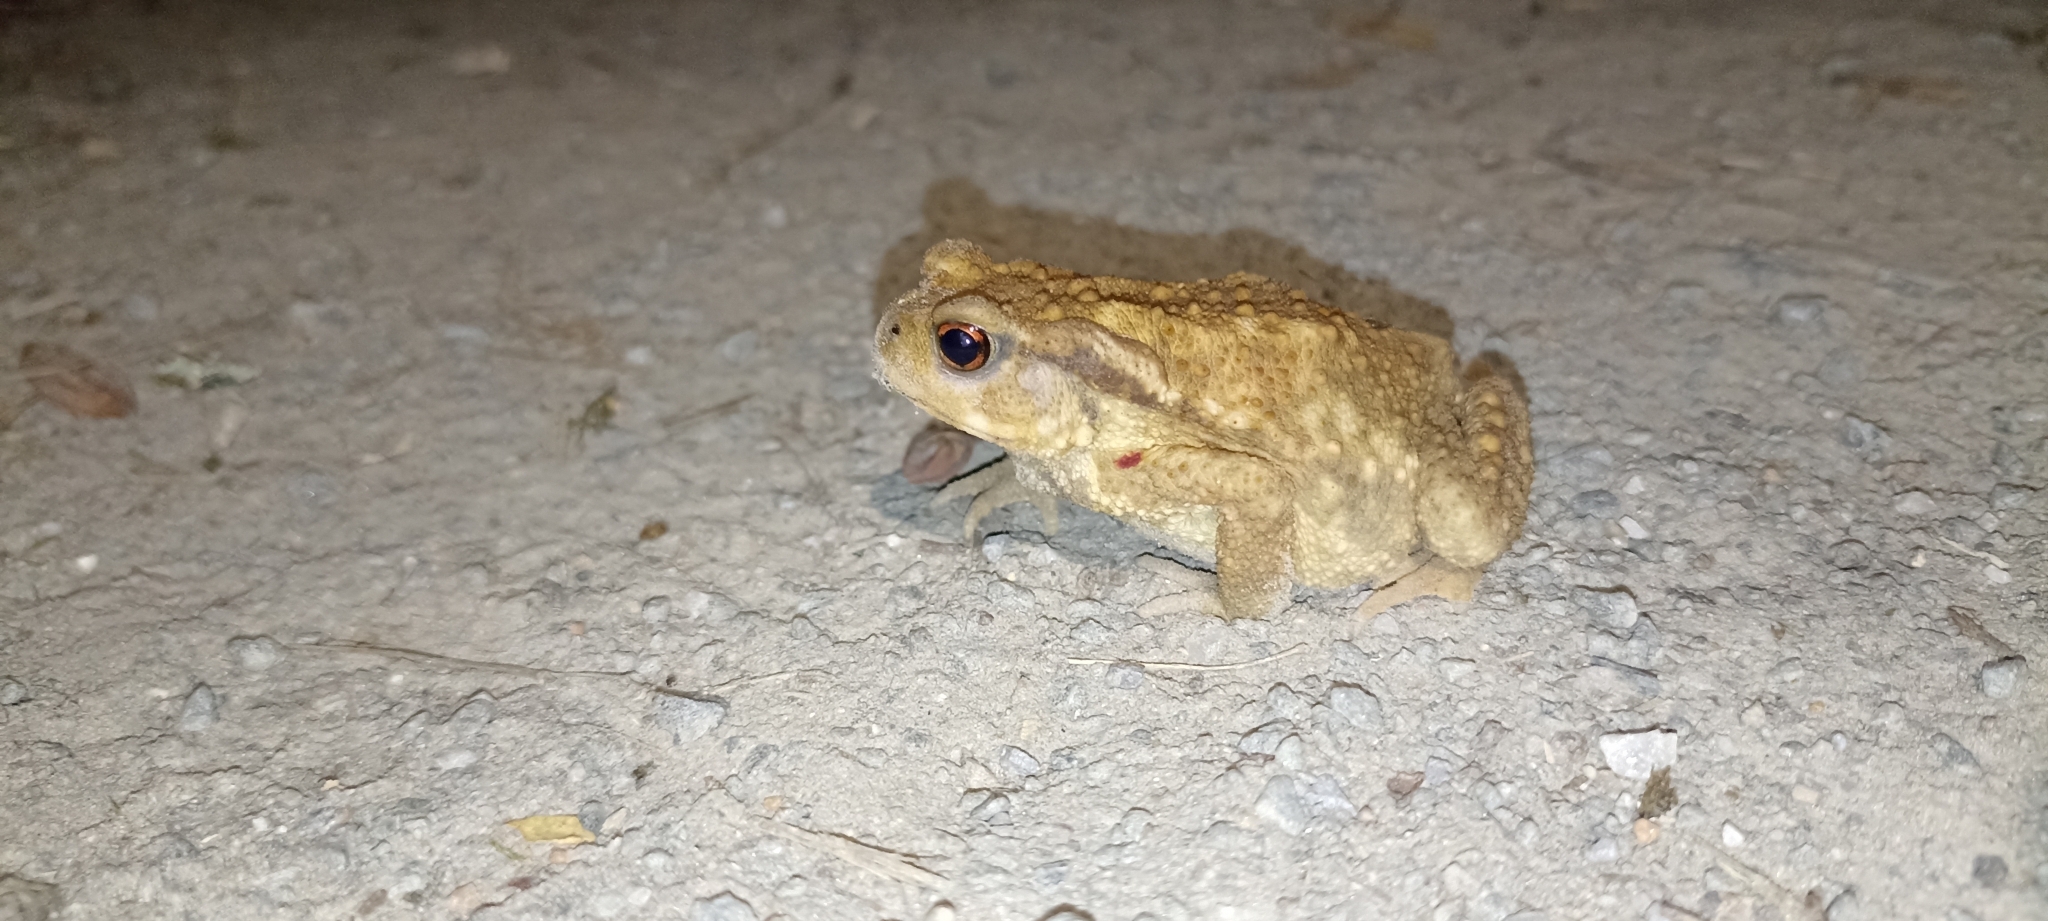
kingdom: Animalia
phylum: Chordata
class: Amphibia
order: Anura
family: Bufonidae
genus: Bufo
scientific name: Bufo spinosus
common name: Western common toad
